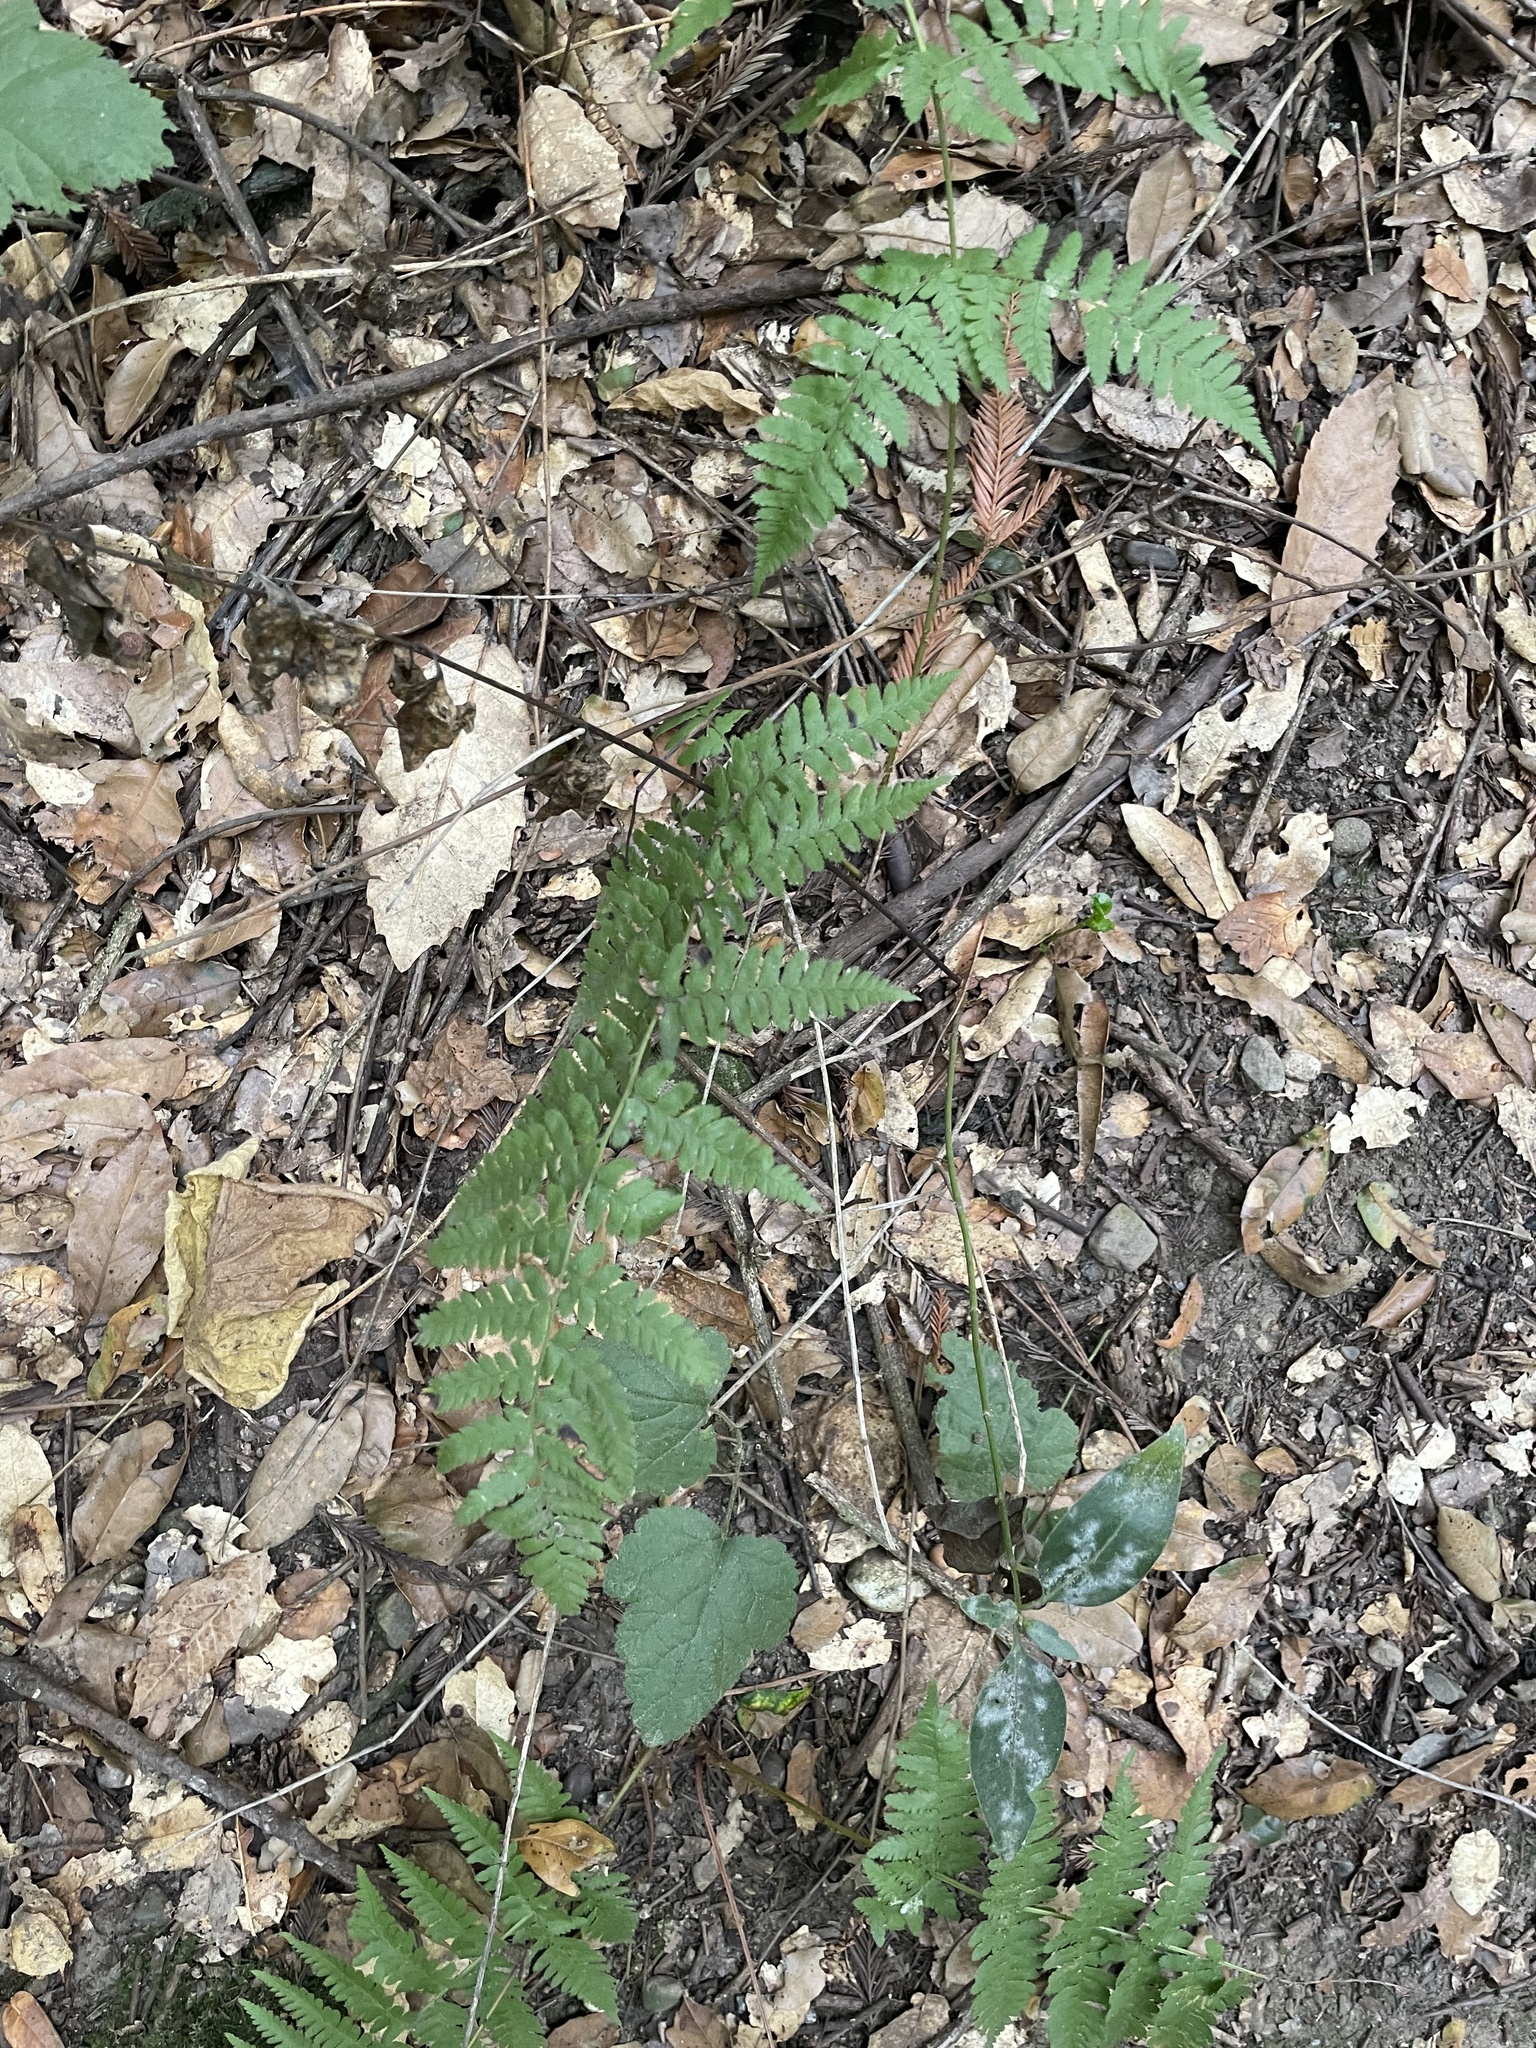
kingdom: Plantae
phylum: Tracheophyta
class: Polypodiopsida
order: Polypodiales
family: Dryopteridaceae
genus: Dryopteris
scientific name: Dryopteris arguta
